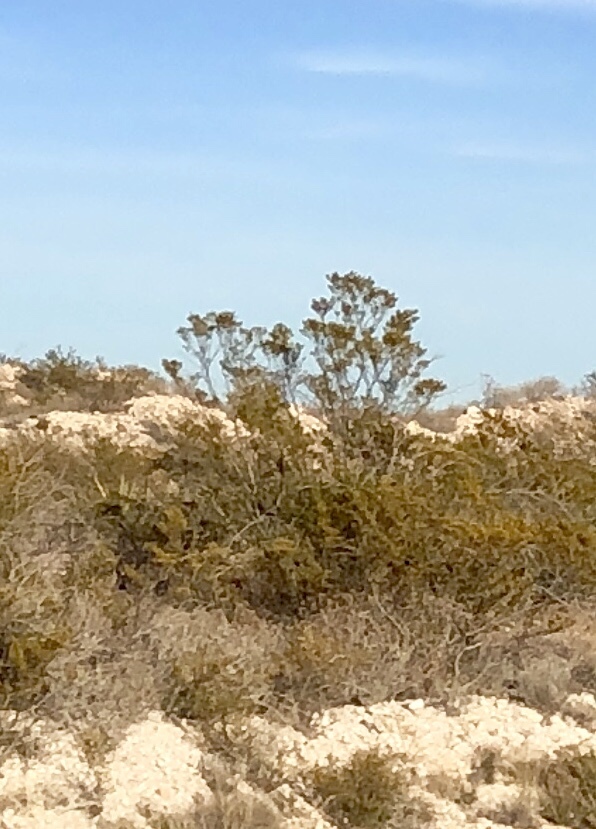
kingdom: Plantae
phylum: Tracheophyta
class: Magnoliopsida
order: Zygophyllales
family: Zygophyllaceae
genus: Larrea
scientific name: Larrea tridentata
